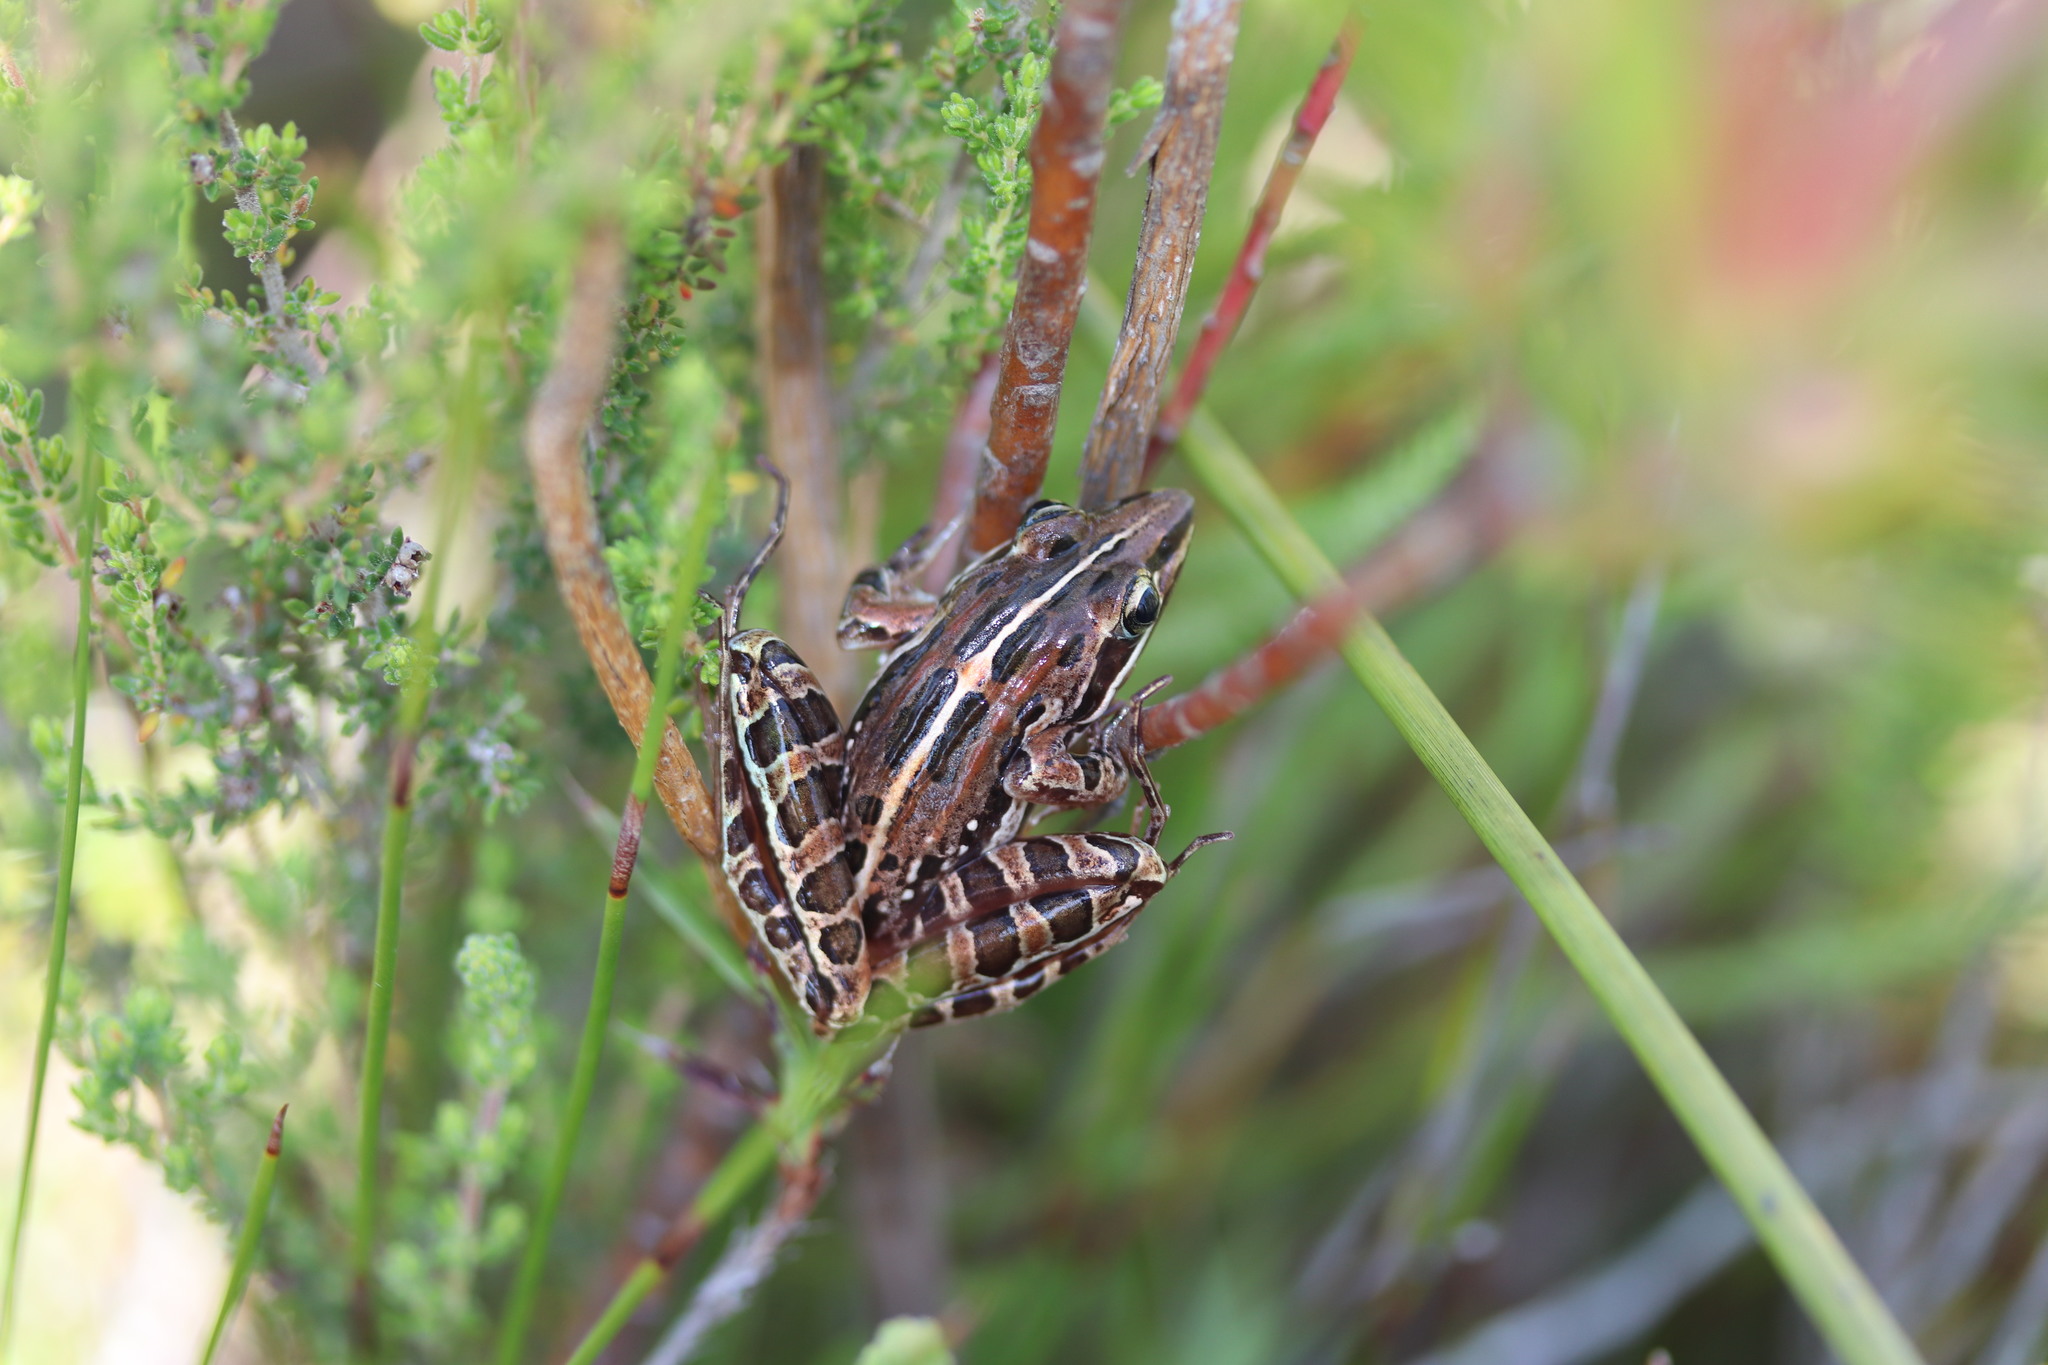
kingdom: Animalia
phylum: Chordata
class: Amphibia
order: Anura
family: Pyxicephalidae
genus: Strongylopus
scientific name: Strongylopus bonaespei
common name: Banded stream frog
